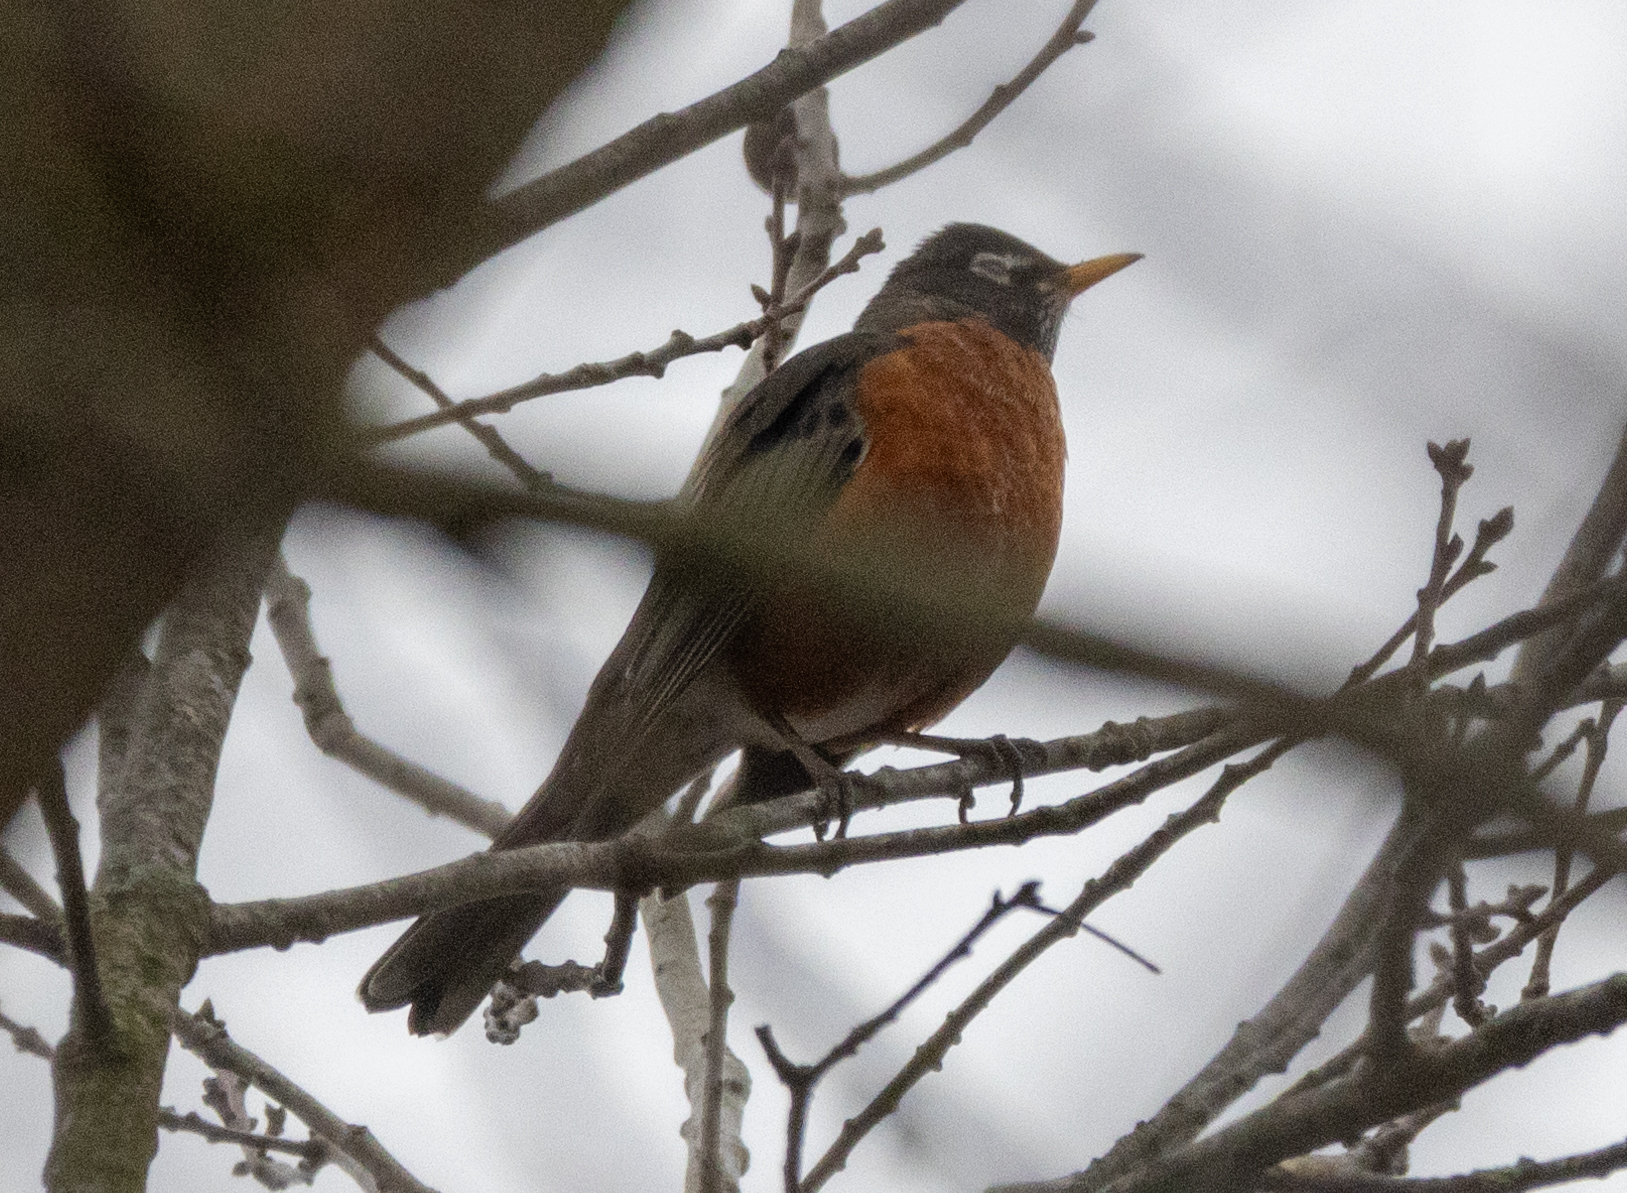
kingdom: Animalia
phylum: Chordata
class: Aves
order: Passeriformes
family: Turdidae
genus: Turdus
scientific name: Turdus migratorius
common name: American robin
